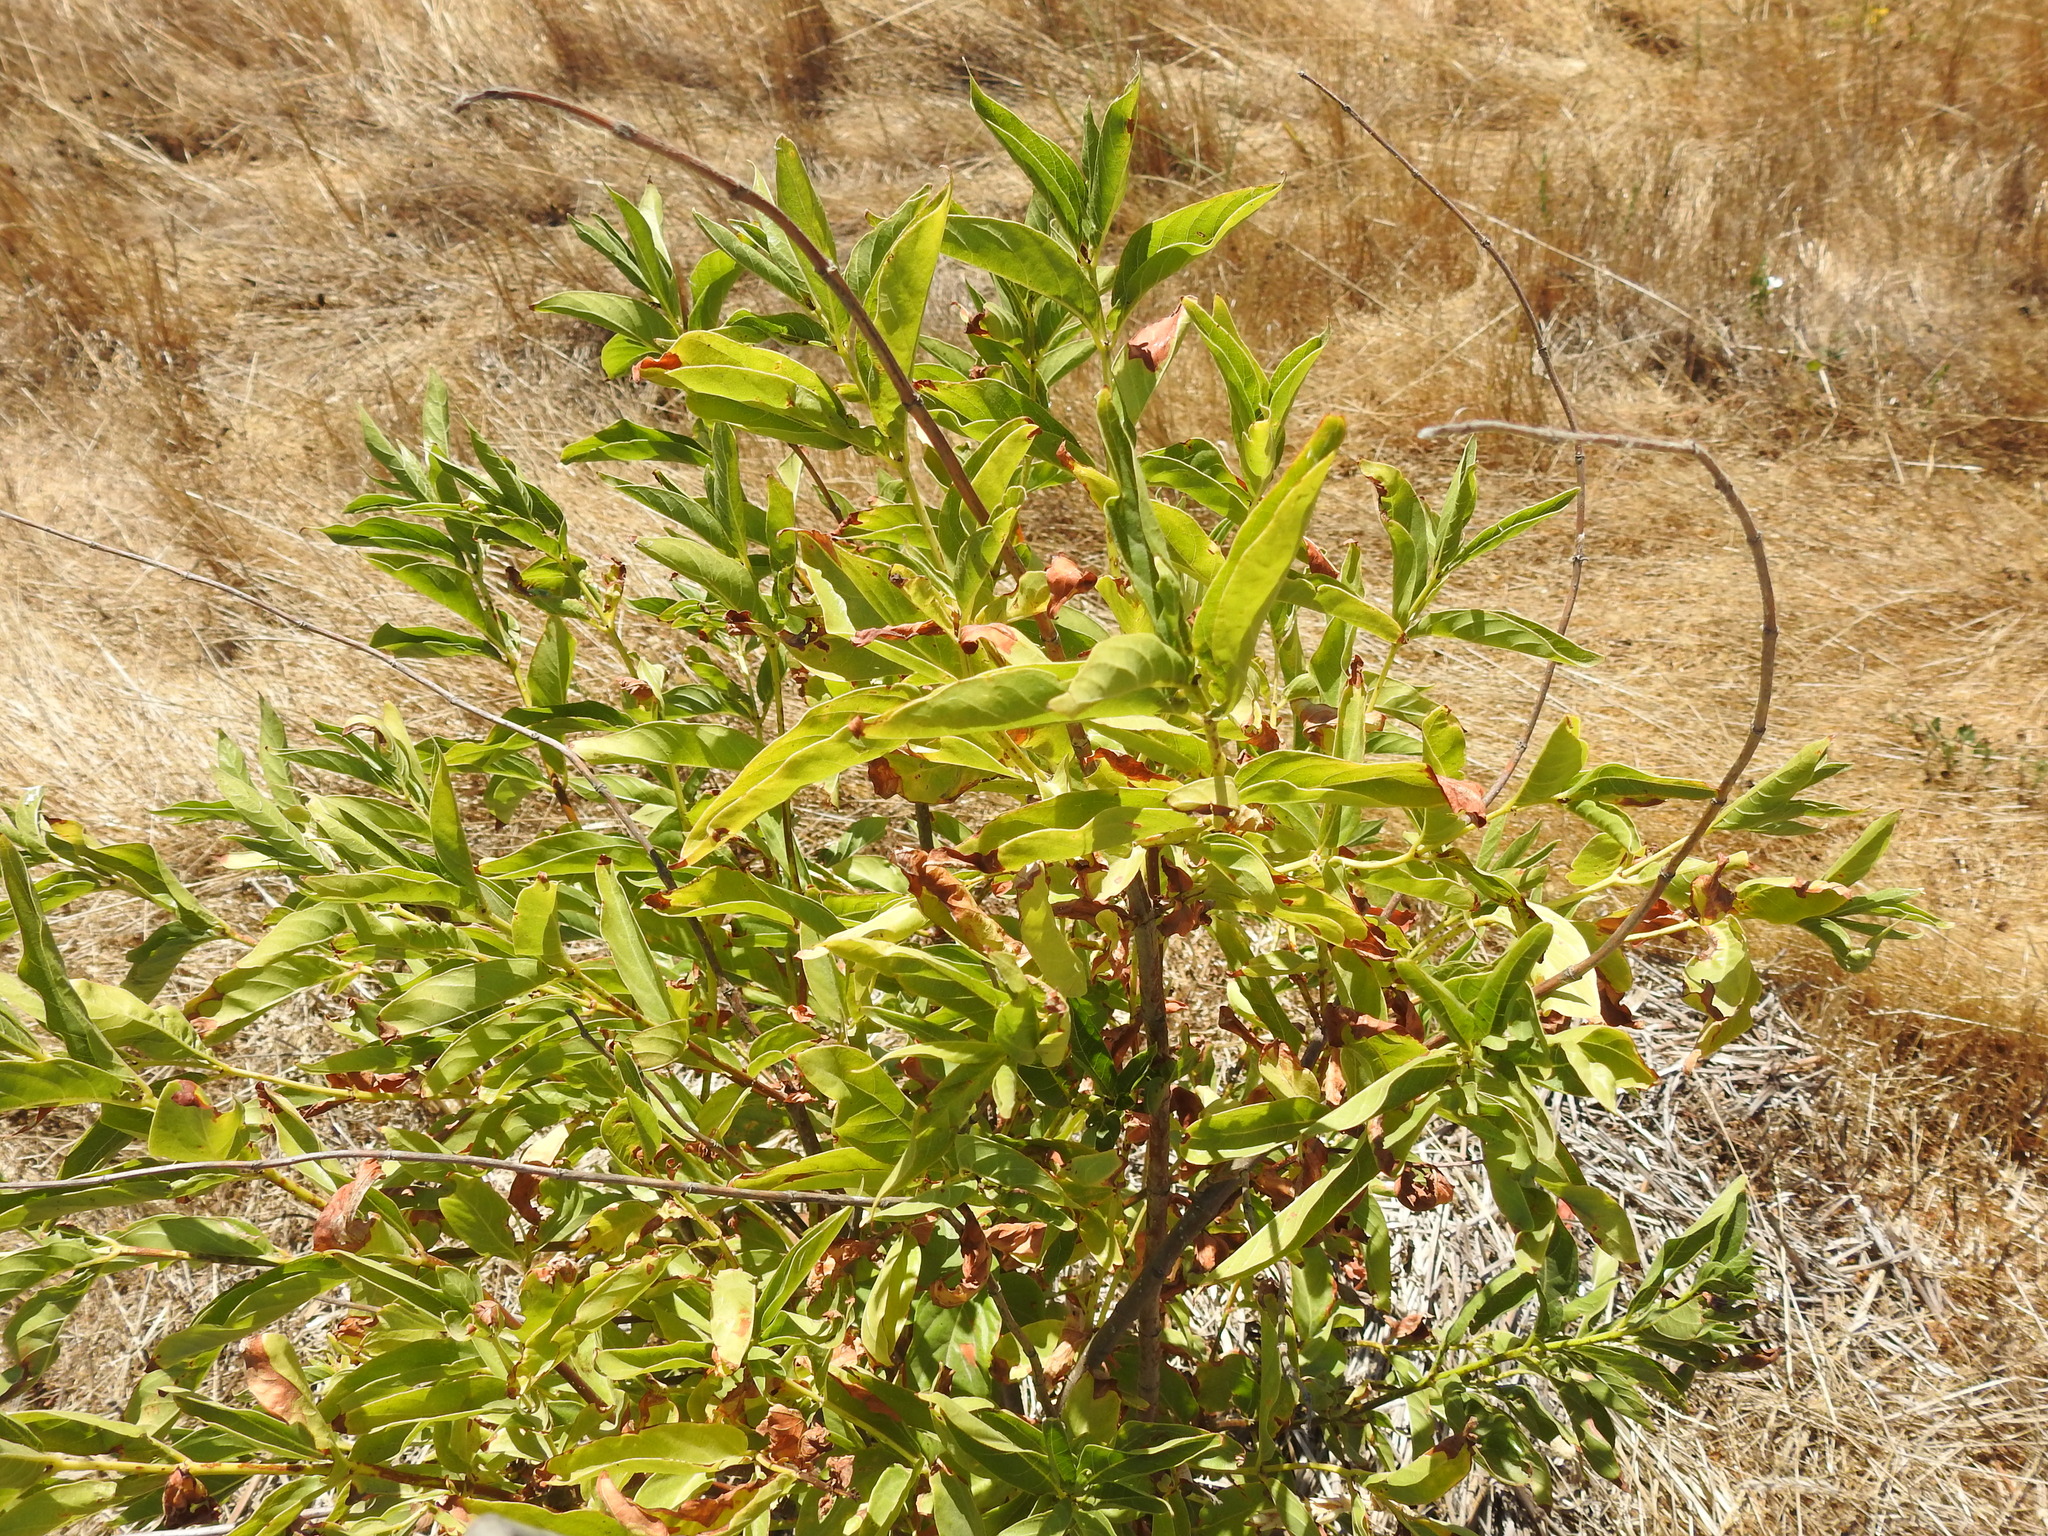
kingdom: Plantae
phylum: Tracheophyta
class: Magnoliopsida
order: Gentianales
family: Rubiaceae
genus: Cephalanthus
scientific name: Cephalanthus occidentalis
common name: Button-willow
